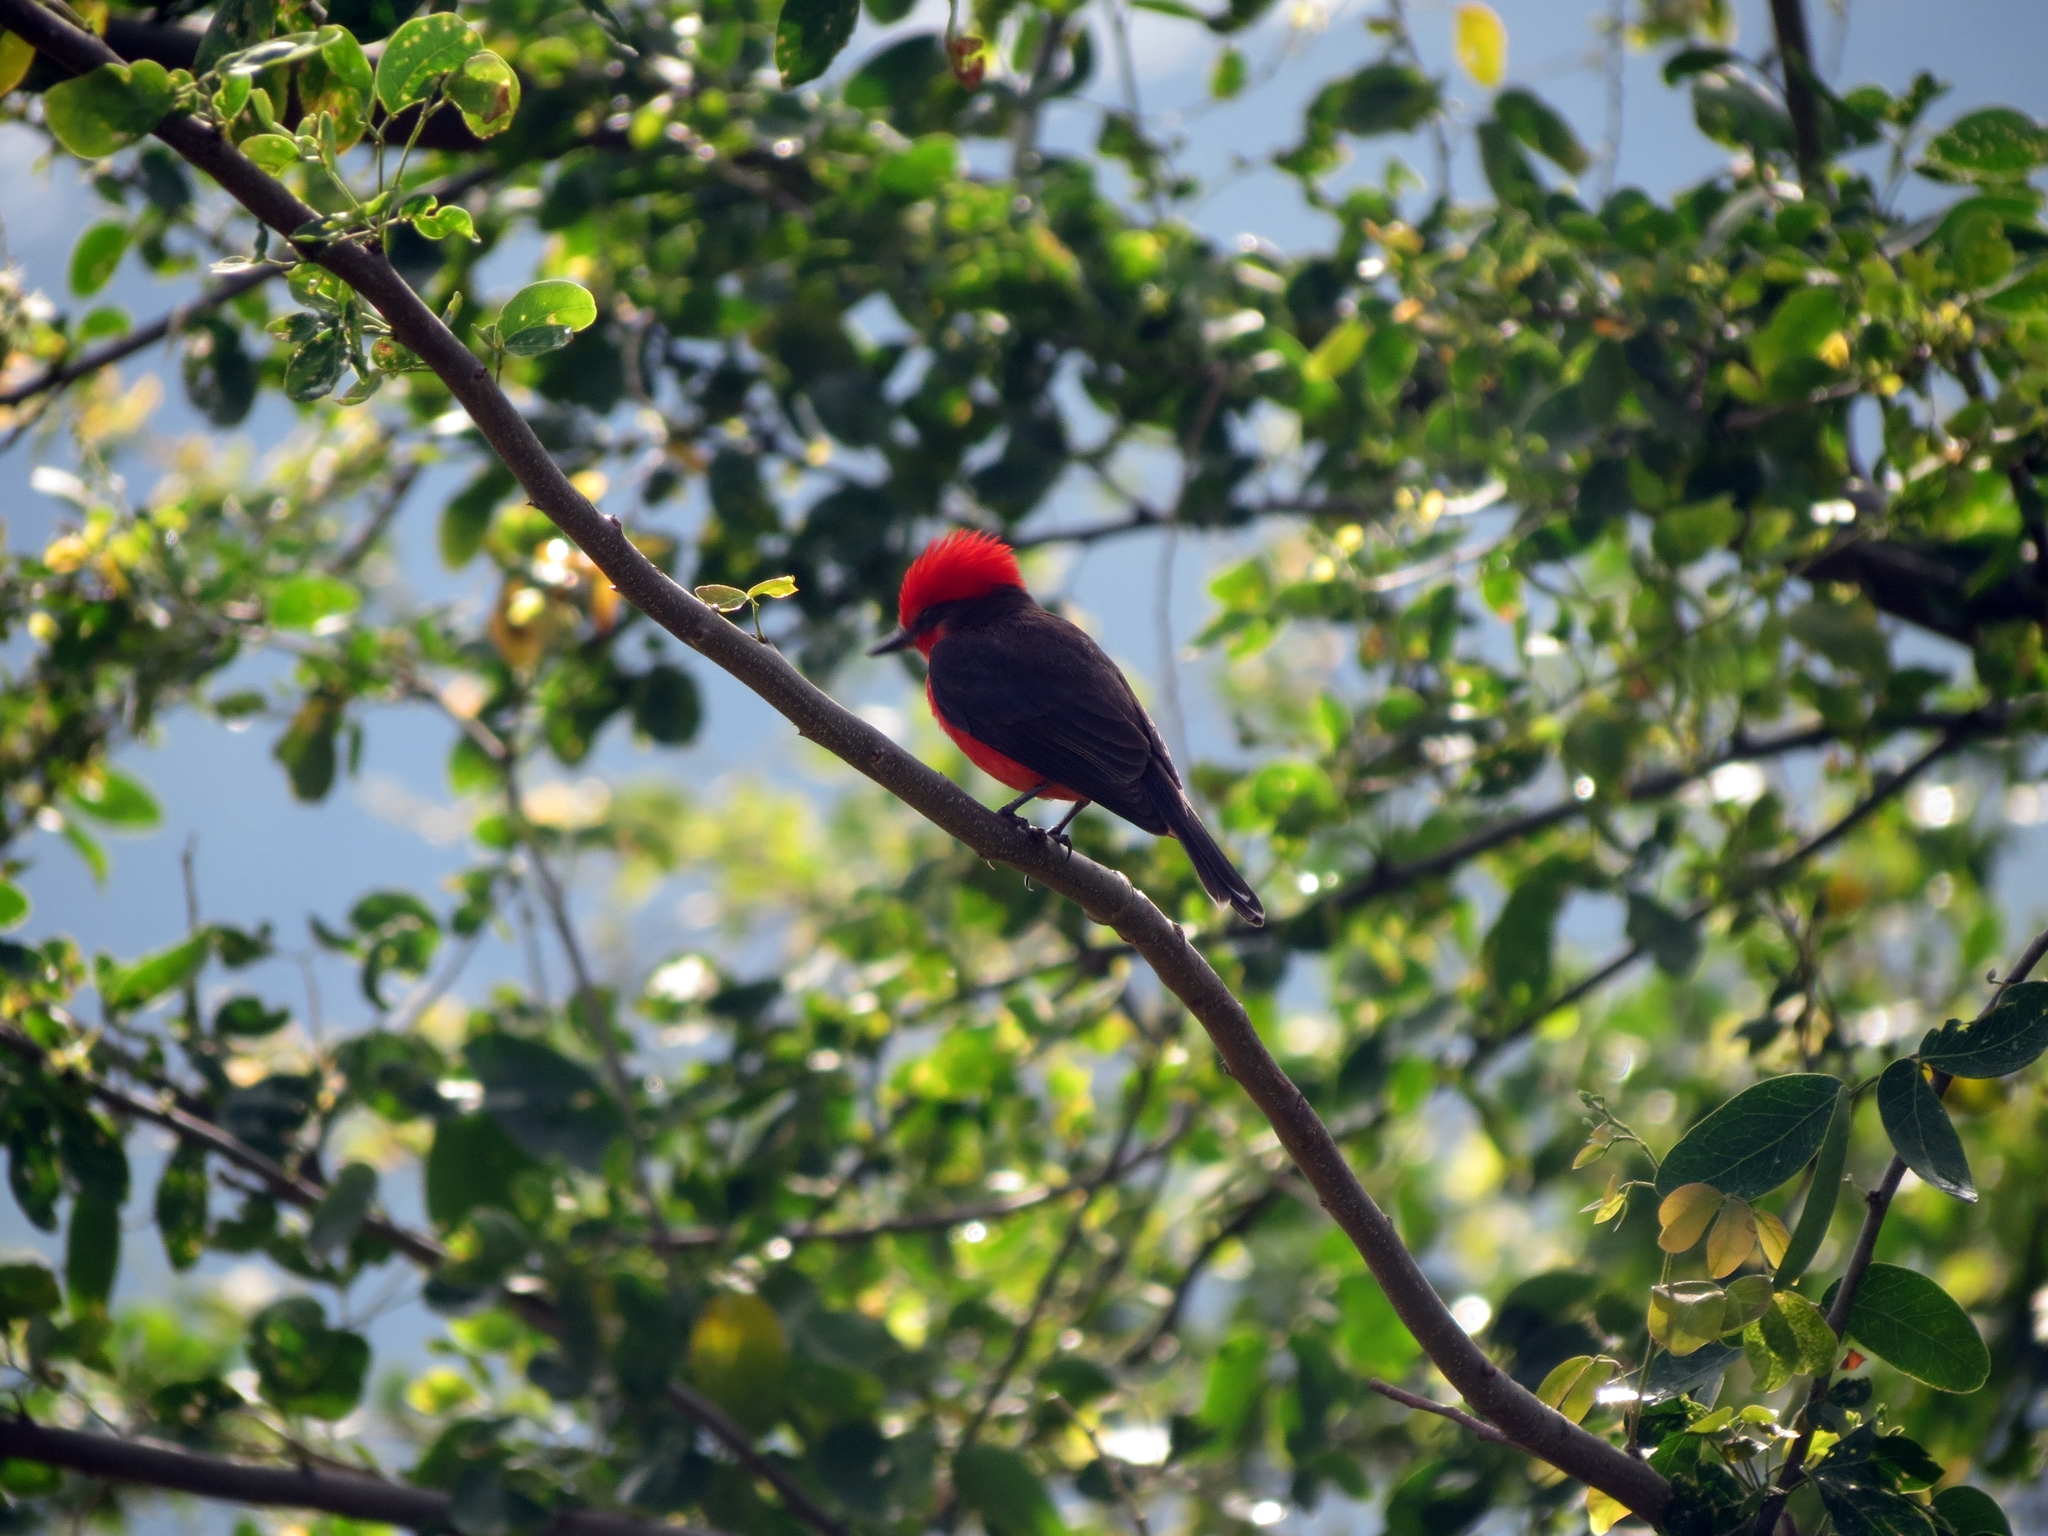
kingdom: Animalia
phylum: Chordata
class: Aves
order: Passeriformes
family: Tyrannidae
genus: Pyrocephalus
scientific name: Pyrocephalus rubinus
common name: Vermilion flycatcher
